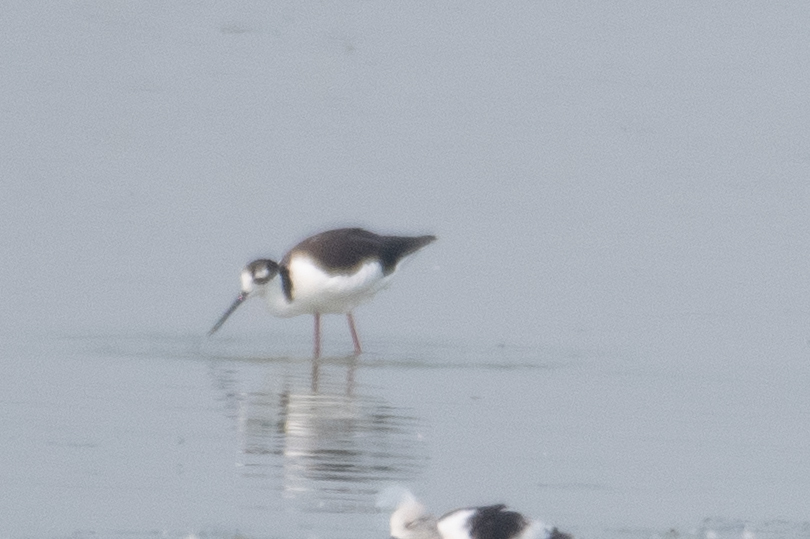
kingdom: Animalia
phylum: Chordata
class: Aves
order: Charadriiformes
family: Recurvirostridae
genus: Himantopus
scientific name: Himantopus mexicanus
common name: Black-necked stilt
